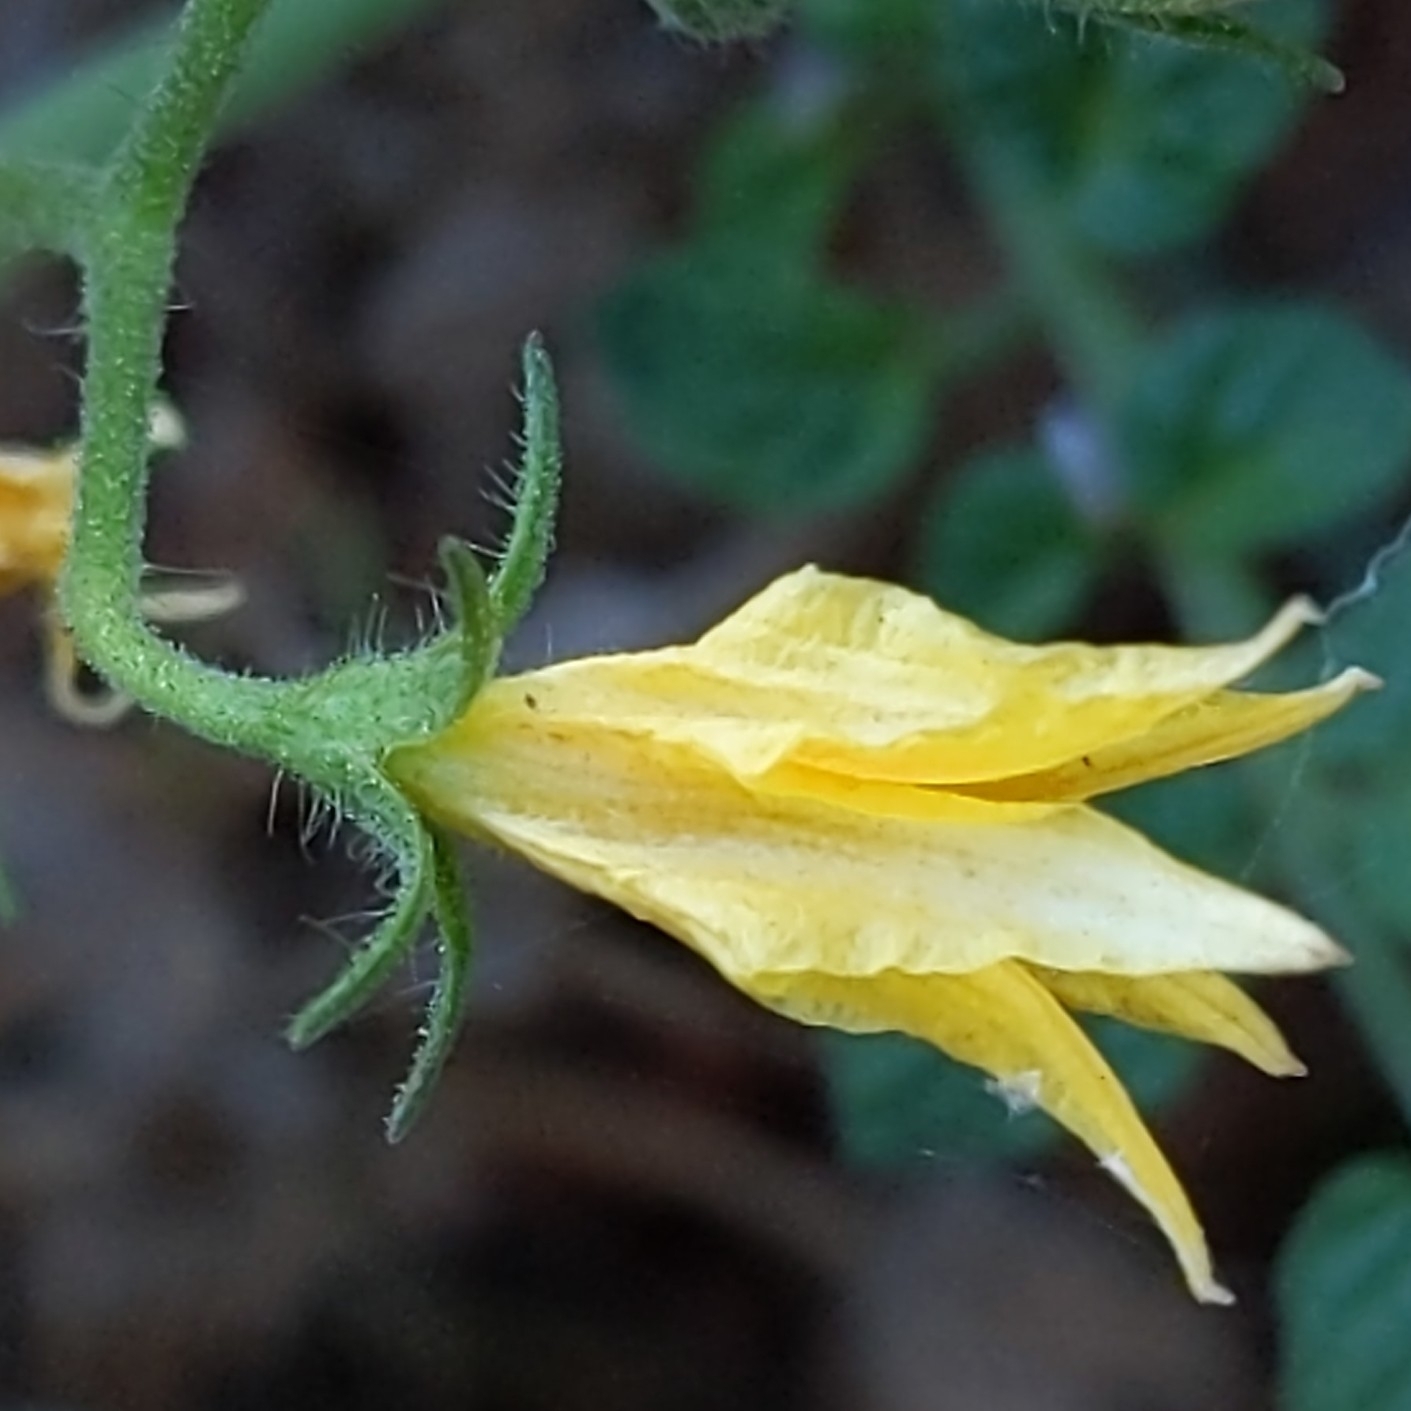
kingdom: Plantae
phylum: Tracheophyta
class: Magnoliopsida
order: Solanales
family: Solanaceae
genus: Solanum
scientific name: Solanum lycopersicum
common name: Garden tomato
